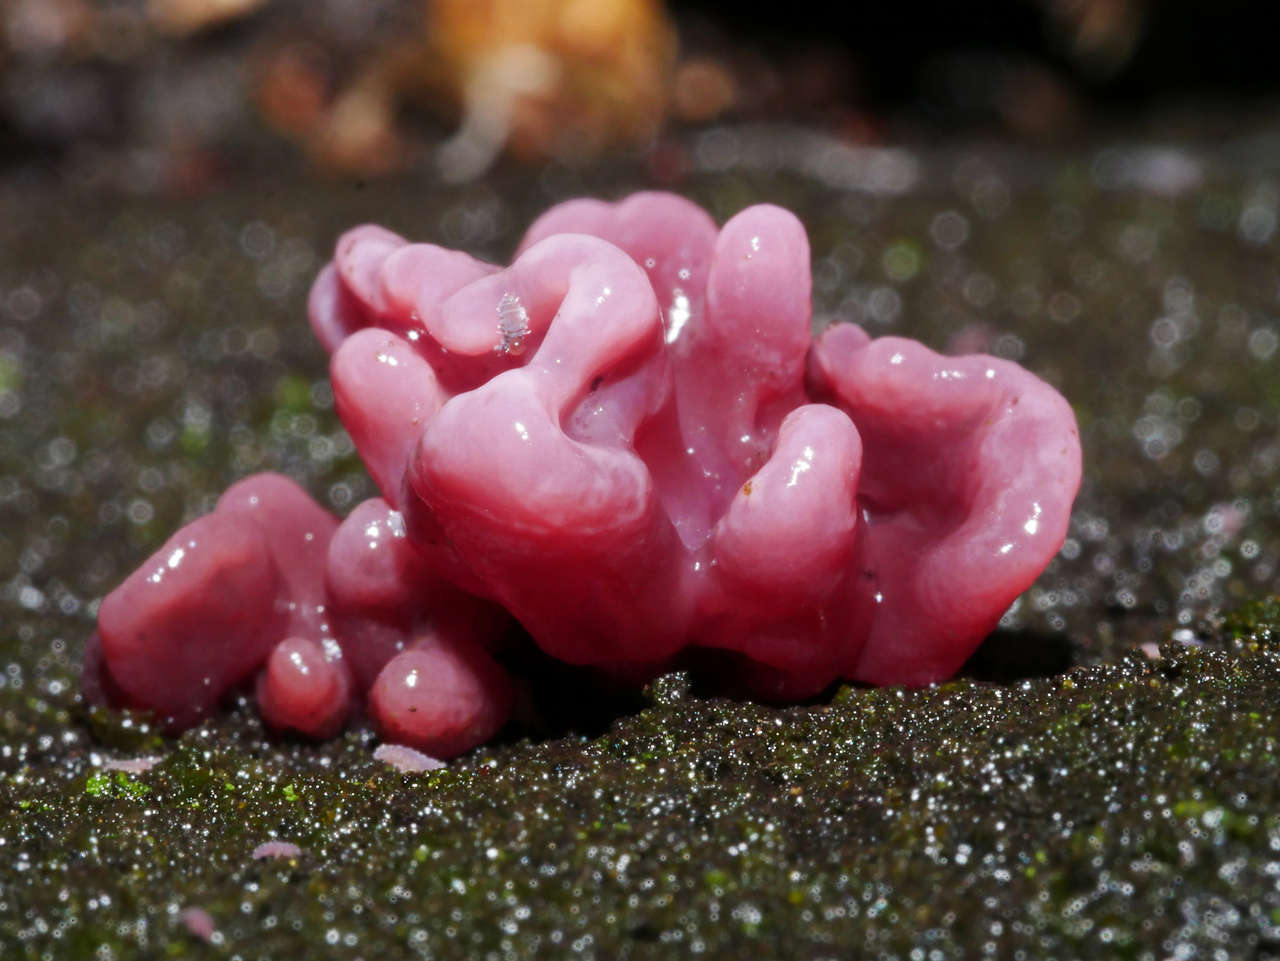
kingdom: Fungi
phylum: Ascomycota
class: Leotiomycetes
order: Helotiales
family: Gelatinodiscaceae
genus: Ascocoryne
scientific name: Ascocoryne sarcoides
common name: Purple jellydisc
